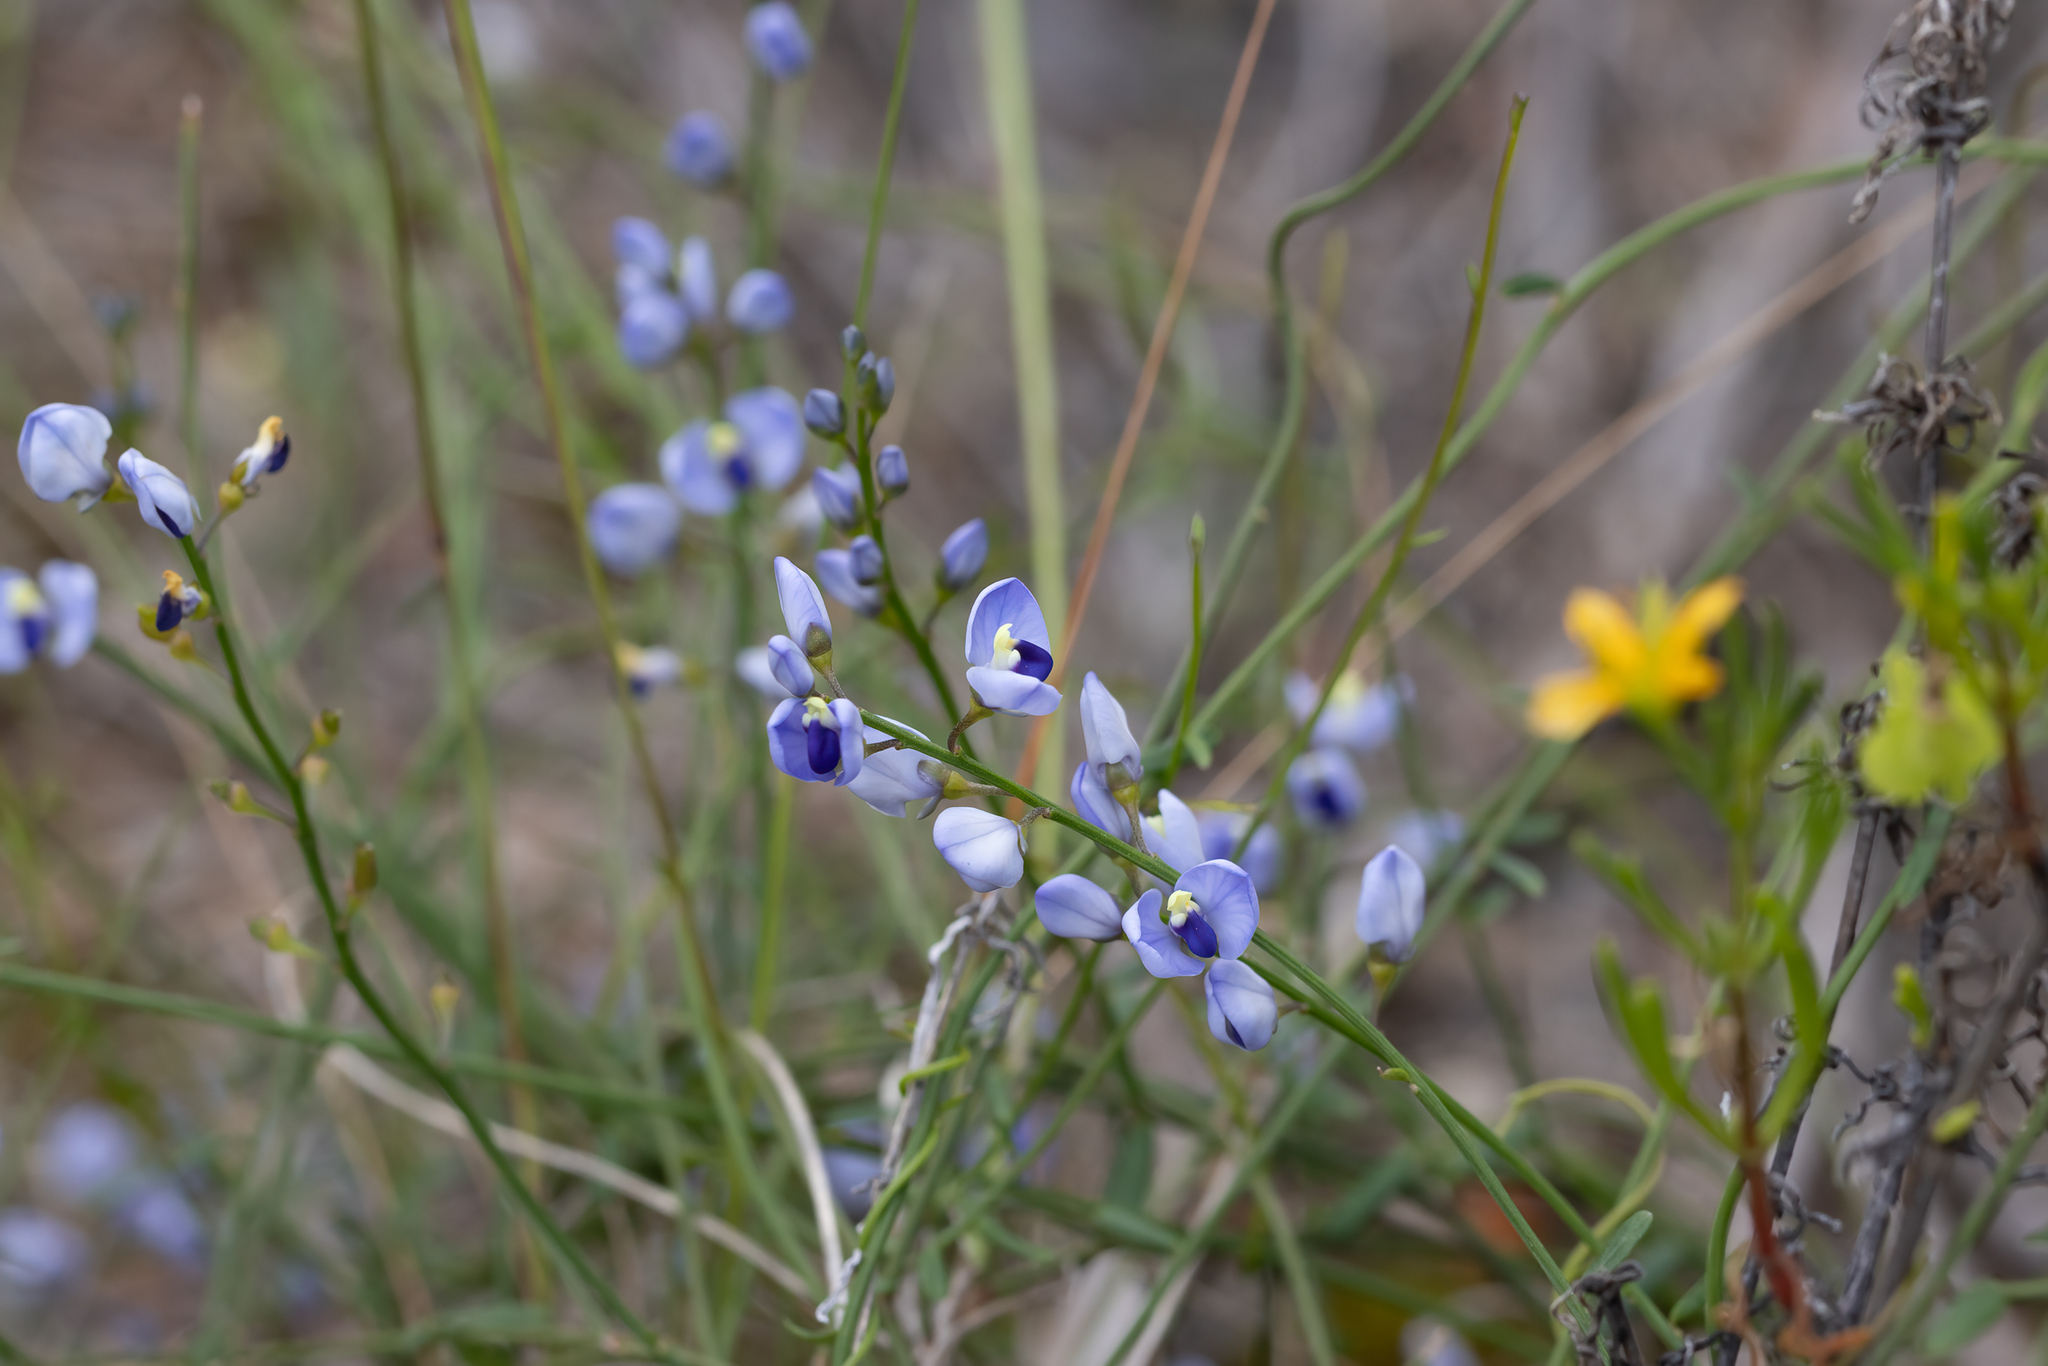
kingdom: Plantae
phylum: Tracheophyta
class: Magnoliopsida
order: Fabales
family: Polygalaceae
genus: Comesperma
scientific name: Comesperma volubile
